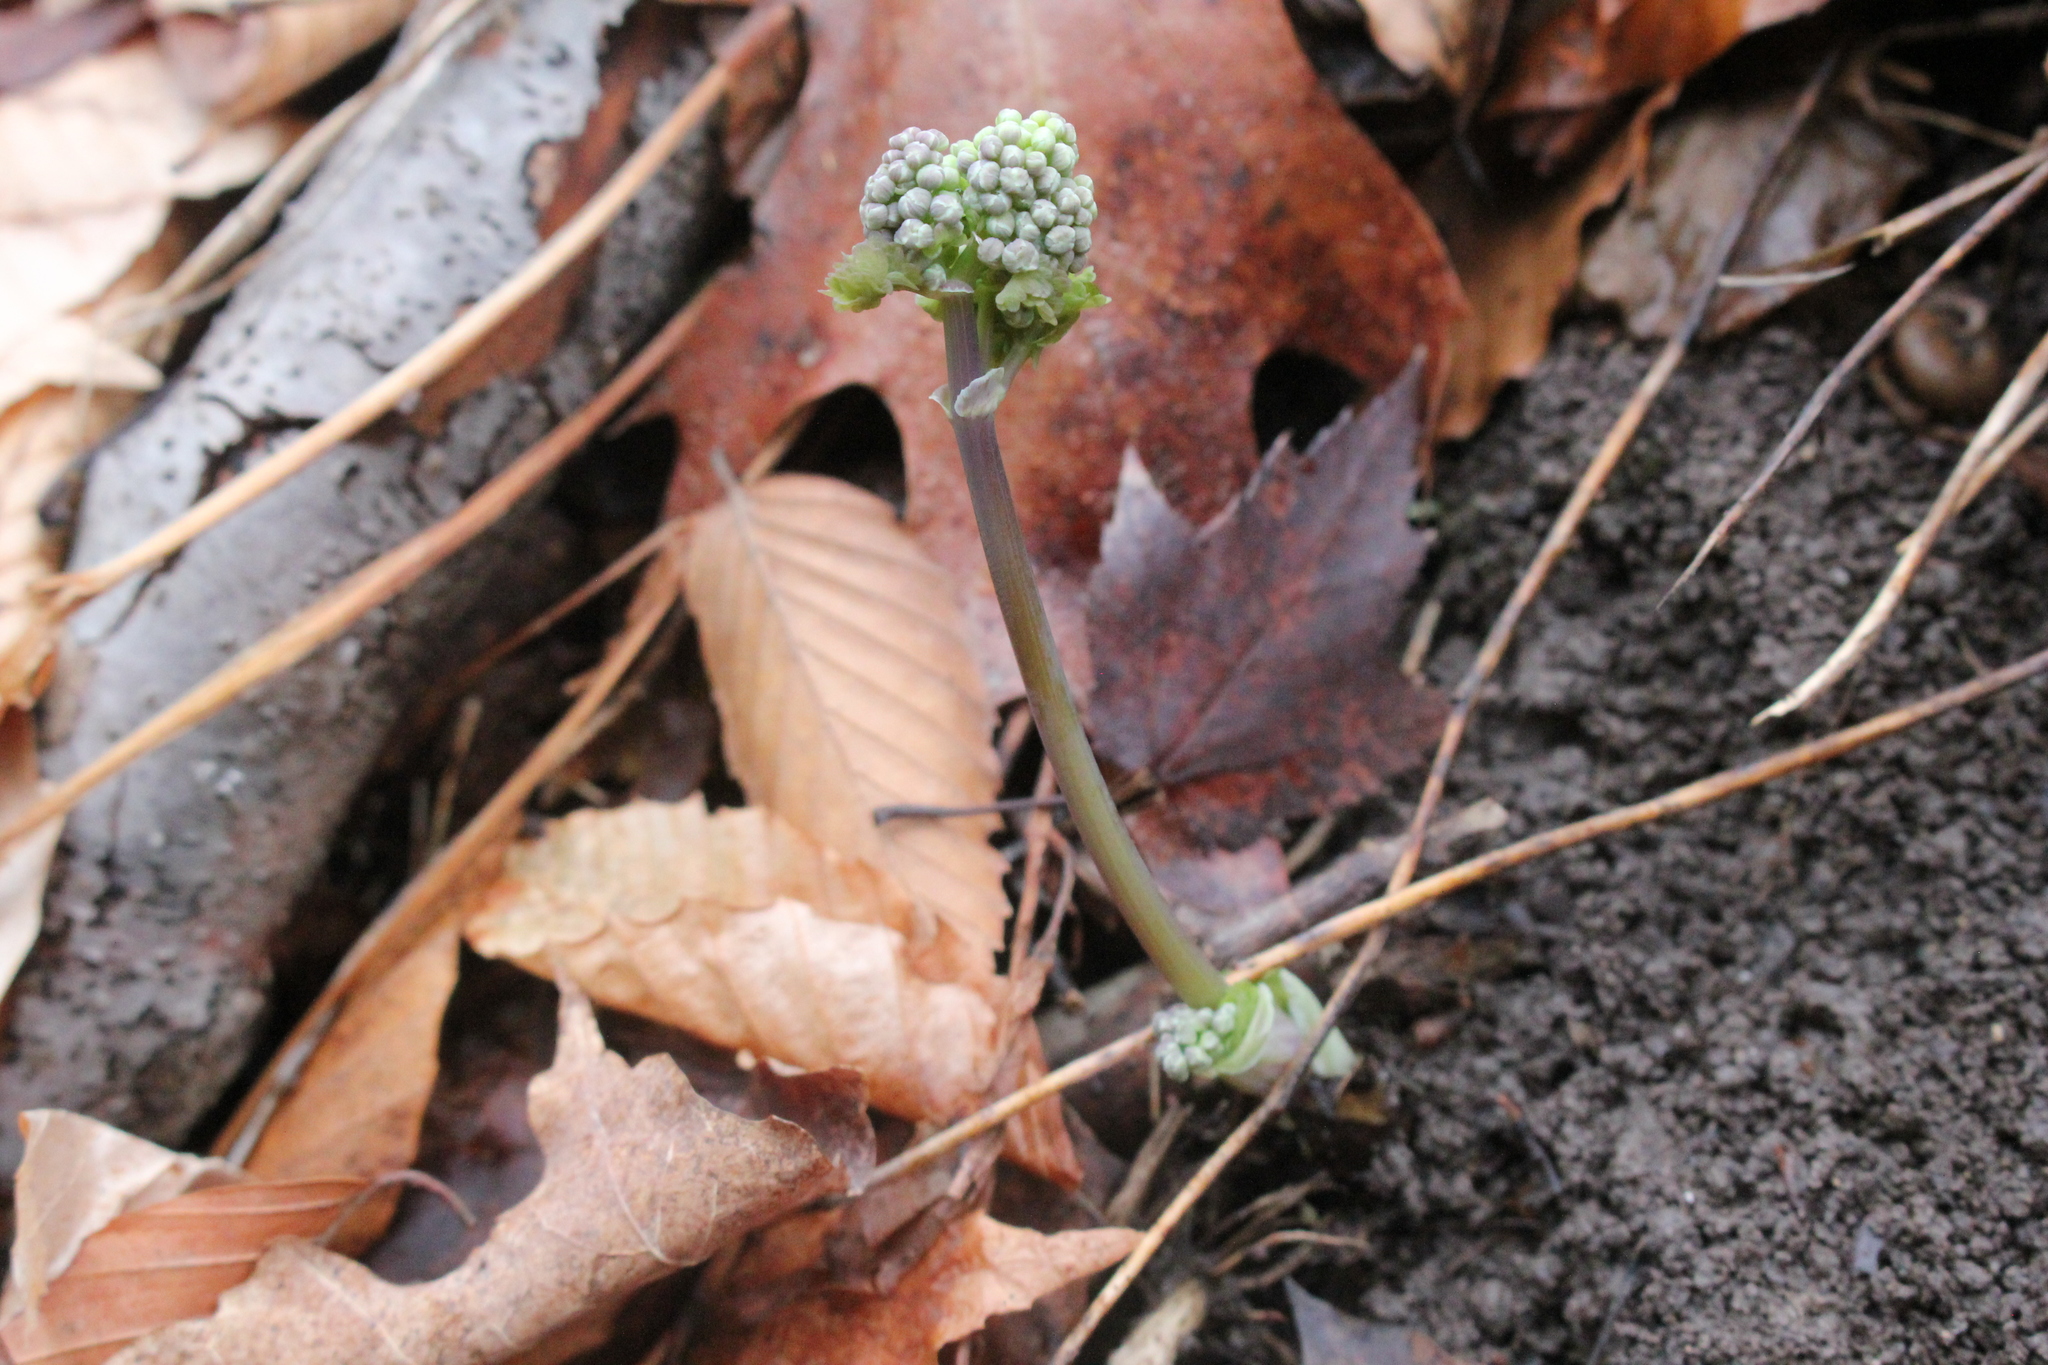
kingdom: Plantae
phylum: Tracheophyta
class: Magnoliopsida
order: Ranunculales
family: Ranunculaceae
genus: Thalictrum
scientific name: Thalictrum dioicum
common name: Early meadow-rue
